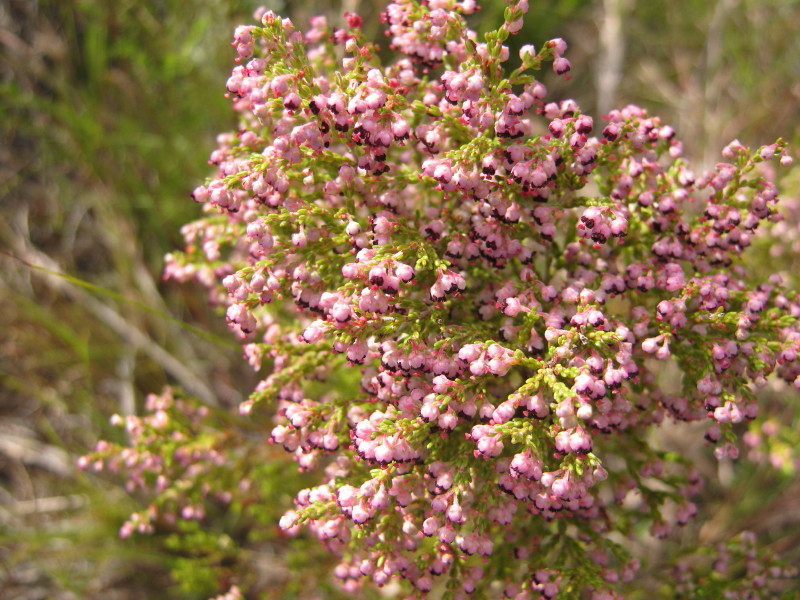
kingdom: Plantae
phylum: Tracheophyta
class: Magnoliopsida
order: Ericales
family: Ericaceae
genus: Erica
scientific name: Erica peltata
